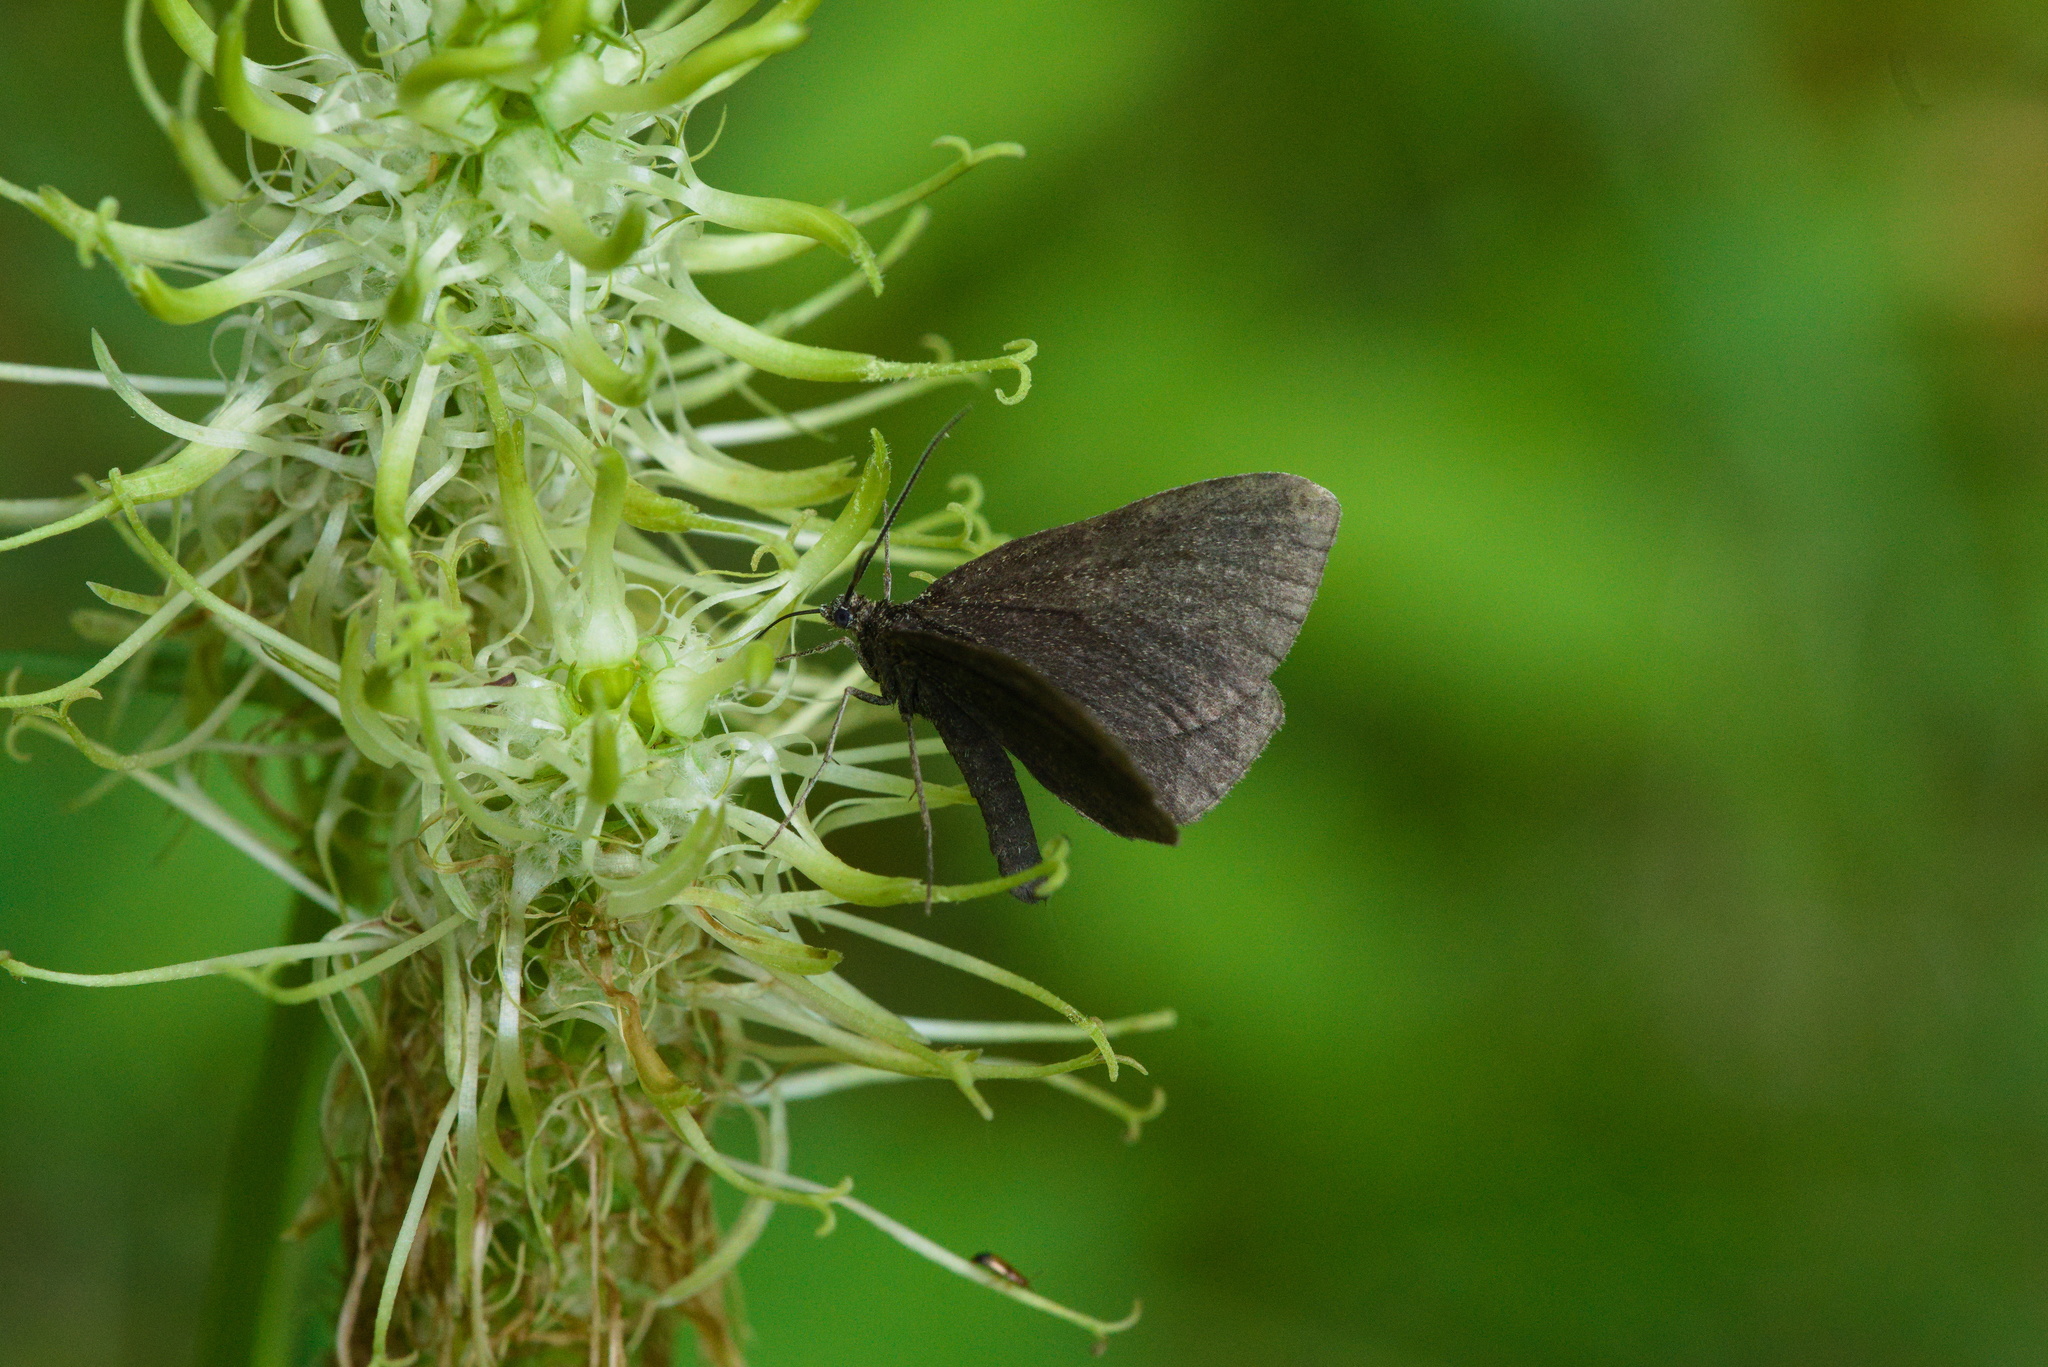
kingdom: Animalia
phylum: Arthropoda
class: Insecta
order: Lepidoptera
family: Geometridae
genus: Odezia
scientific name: Odezia atrata
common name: Chimney sweeper
